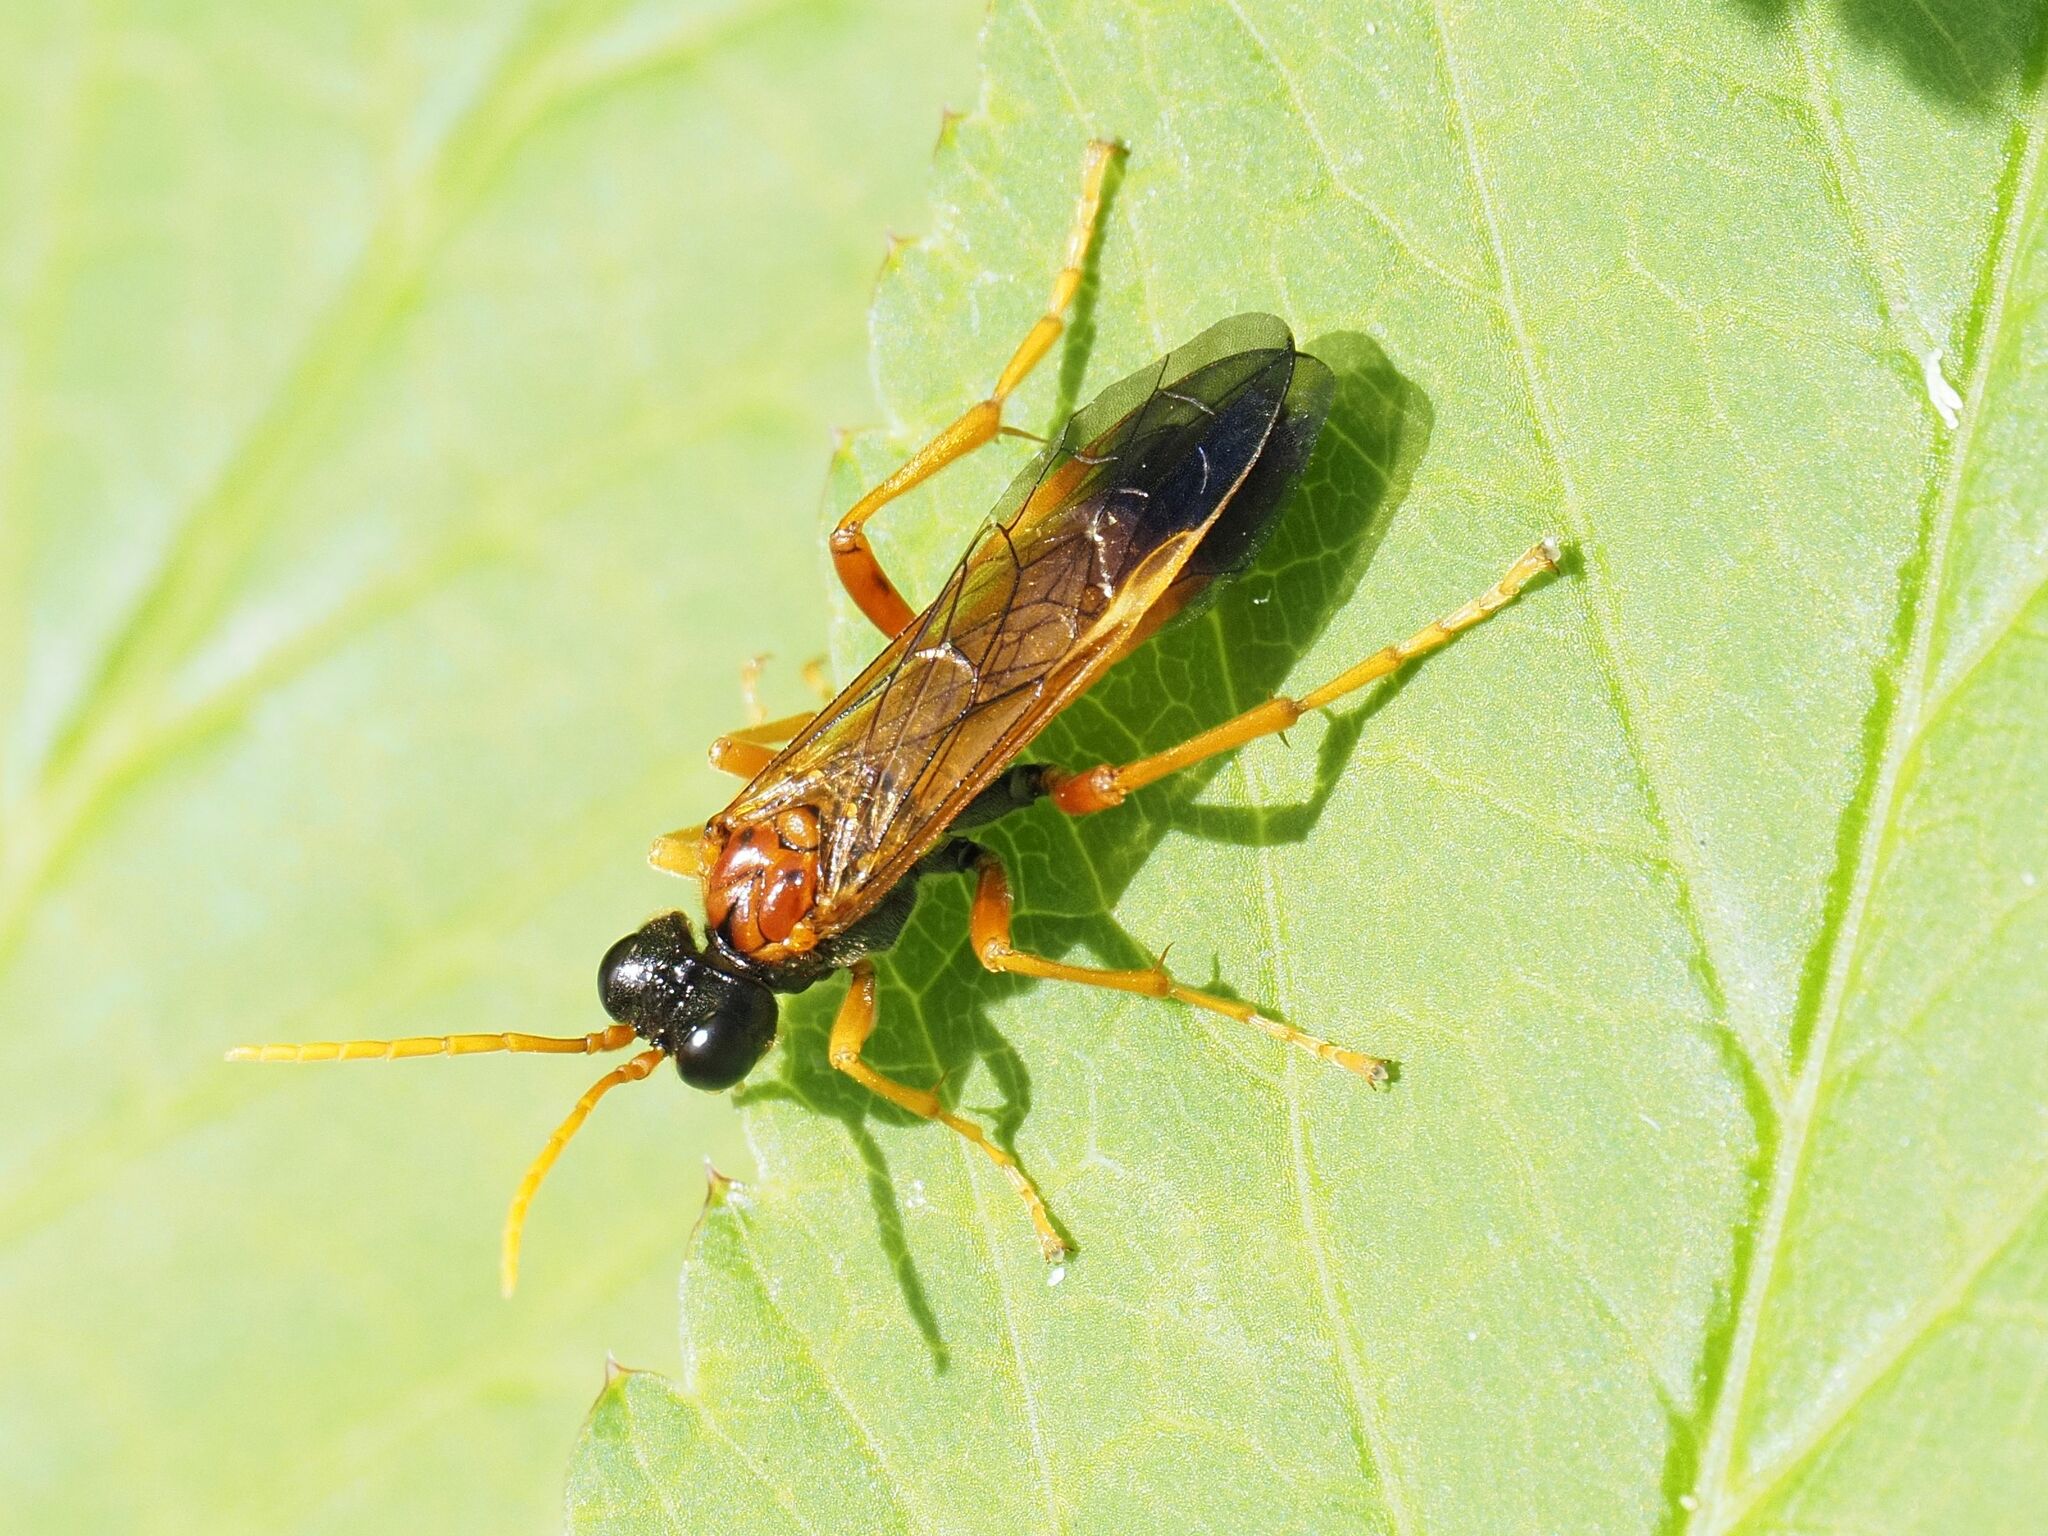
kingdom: Animalia
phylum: Arthropoda
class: Insecta
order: Hymenoptera
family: Tenthredinidae
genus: Tenthredo
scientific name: Tenthredo campestris
